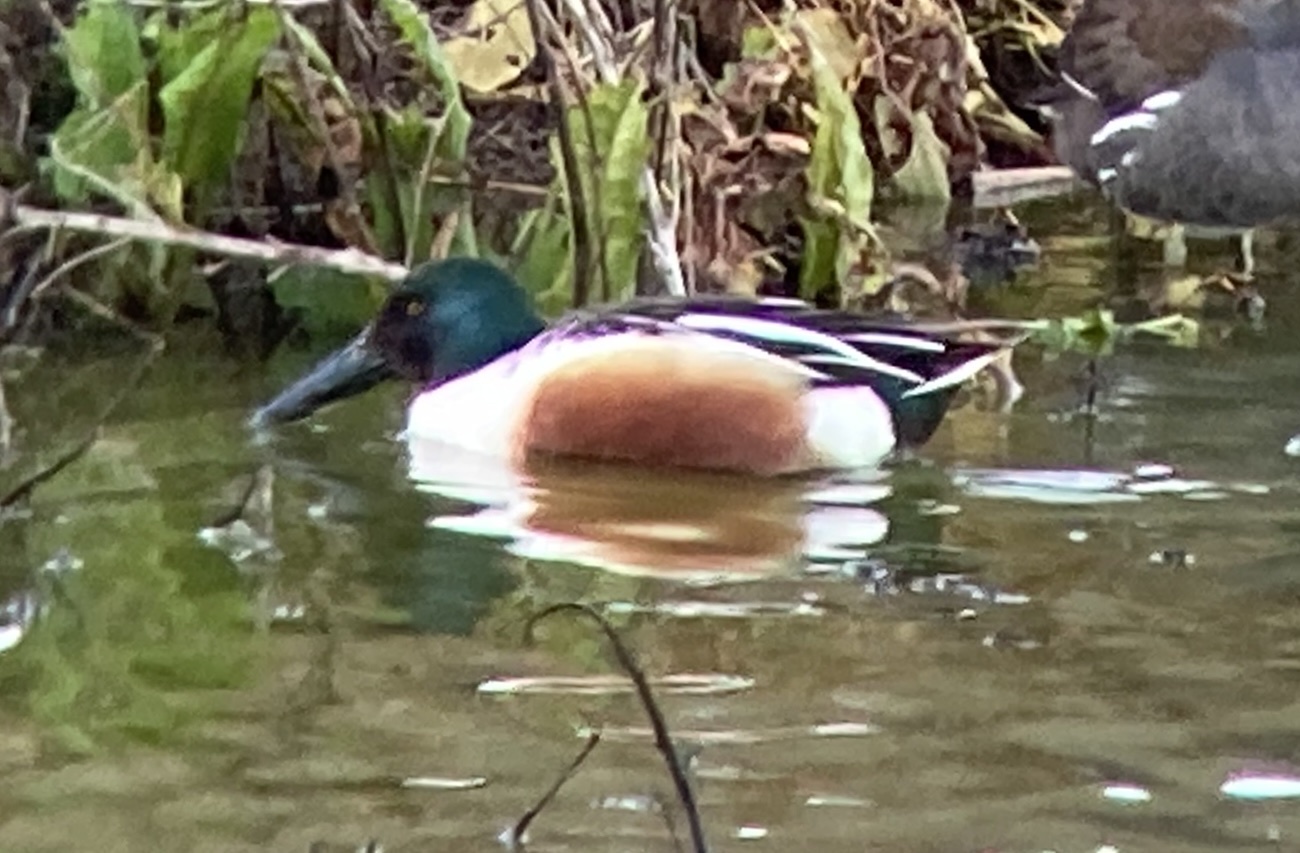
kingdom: Animalia
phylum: Chordata
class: Aves
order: Anseriformes
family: Anatidae
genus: Spatula
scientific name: Spatula clypeata
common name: Northern shoveler
